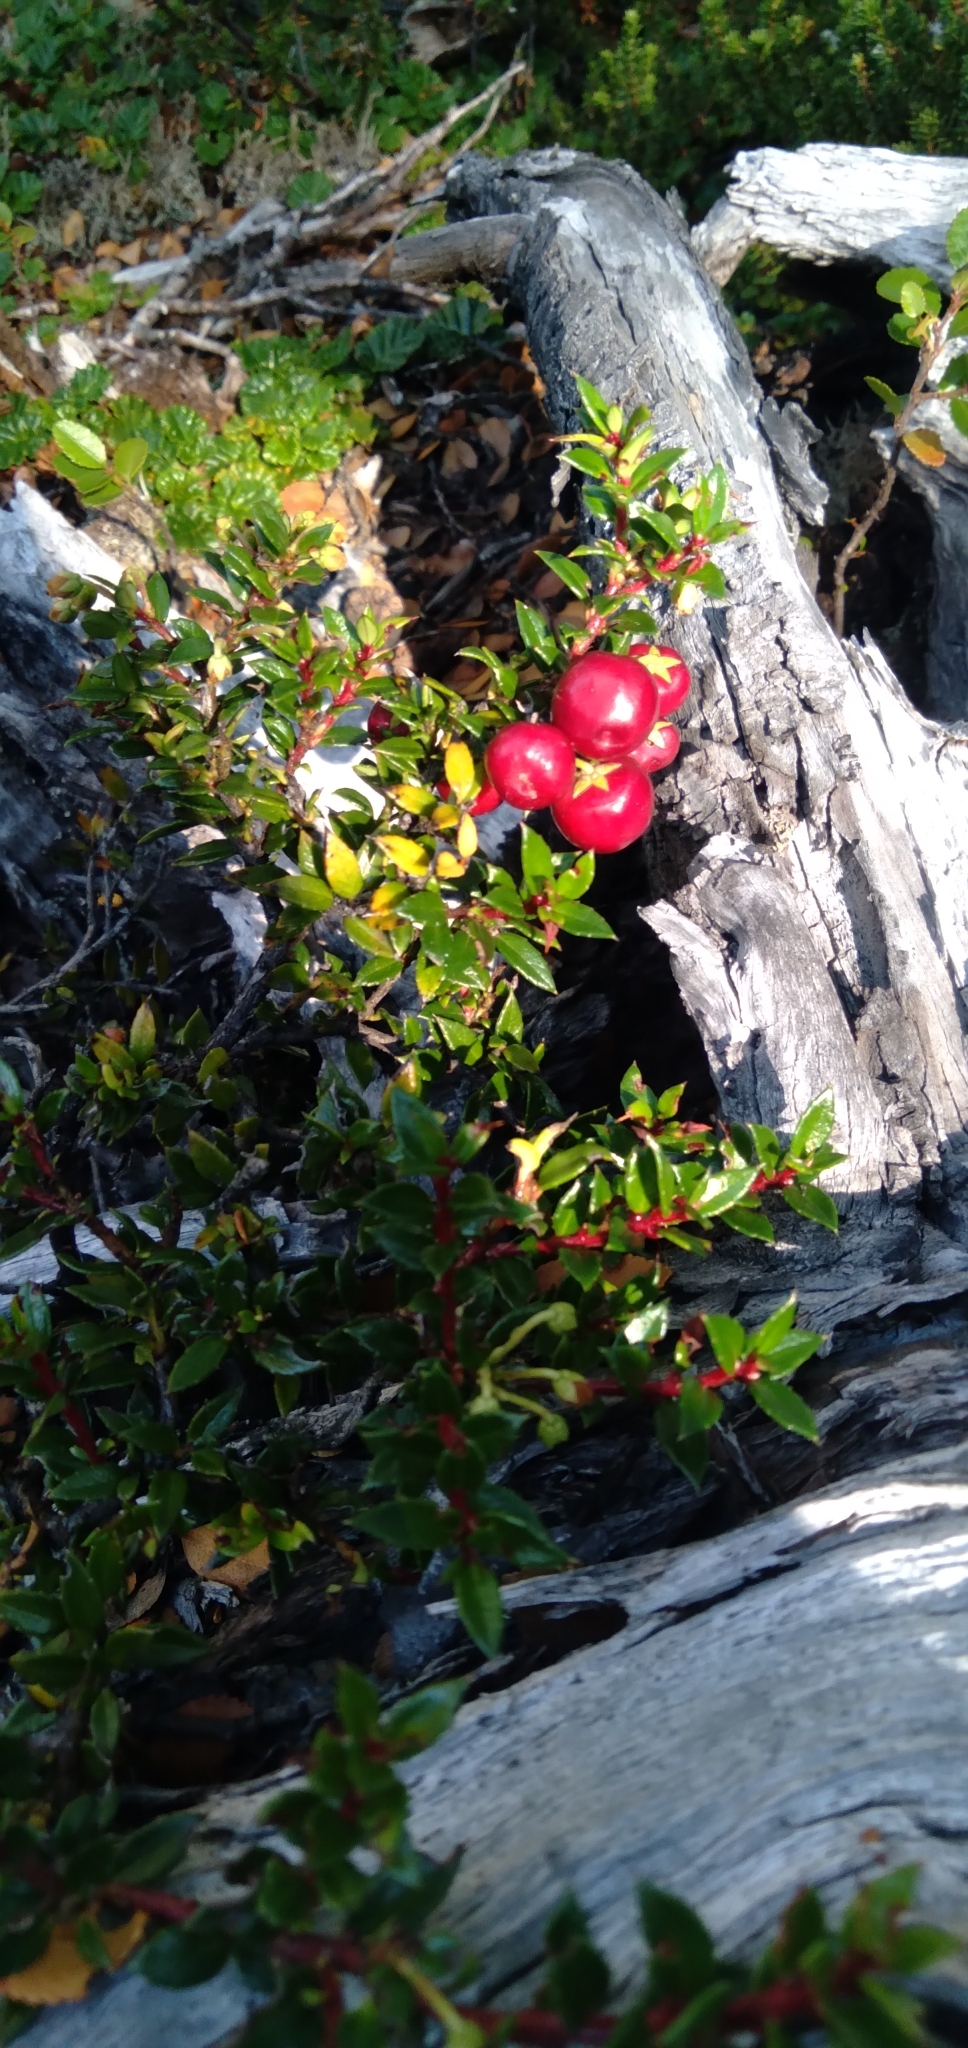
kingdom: Plantae
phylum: Tracheophyta
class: Magnoliopsida
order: Ericales
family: Ericaceae
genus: Gaultheria
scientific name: Gaultheria mucronata
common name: Prickly heath
